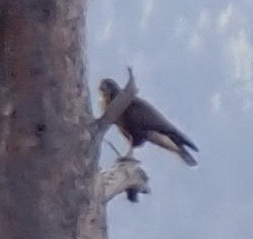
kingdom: Animalia
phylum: Chordata
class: Aves
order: Accipitriformes
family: Accipitridae
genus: Buteo
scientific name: Buteo buteo
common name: Common buzzard
